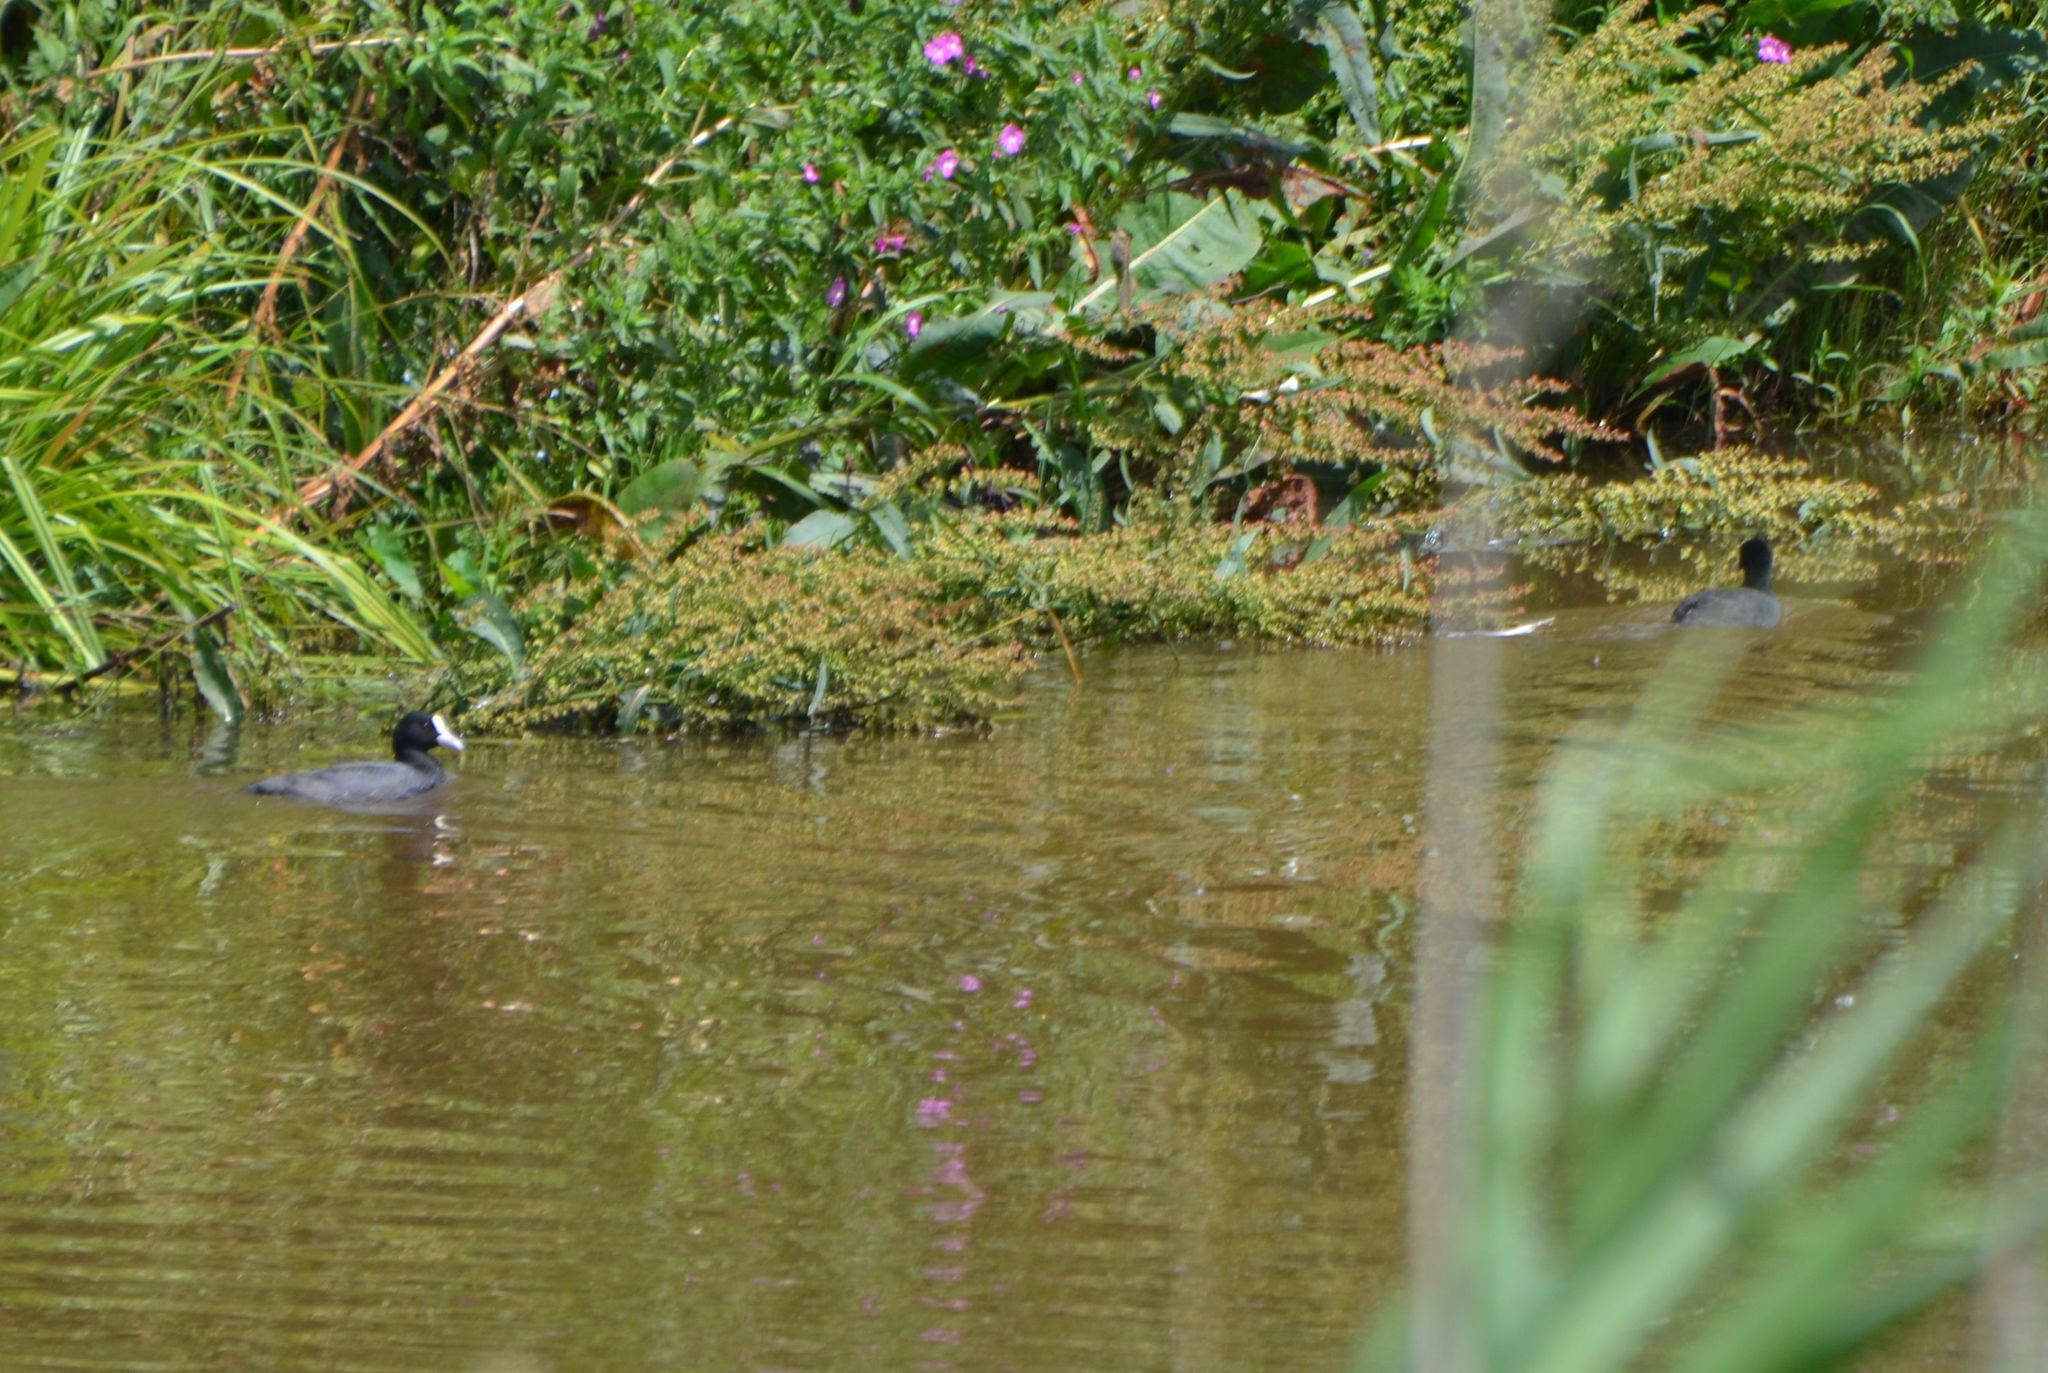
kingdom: Animalia
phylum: Chordata
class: Aves
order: Gruiformes
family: Rallidae
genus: Fulica
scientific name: Fulica atra
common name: Eurasian coot
